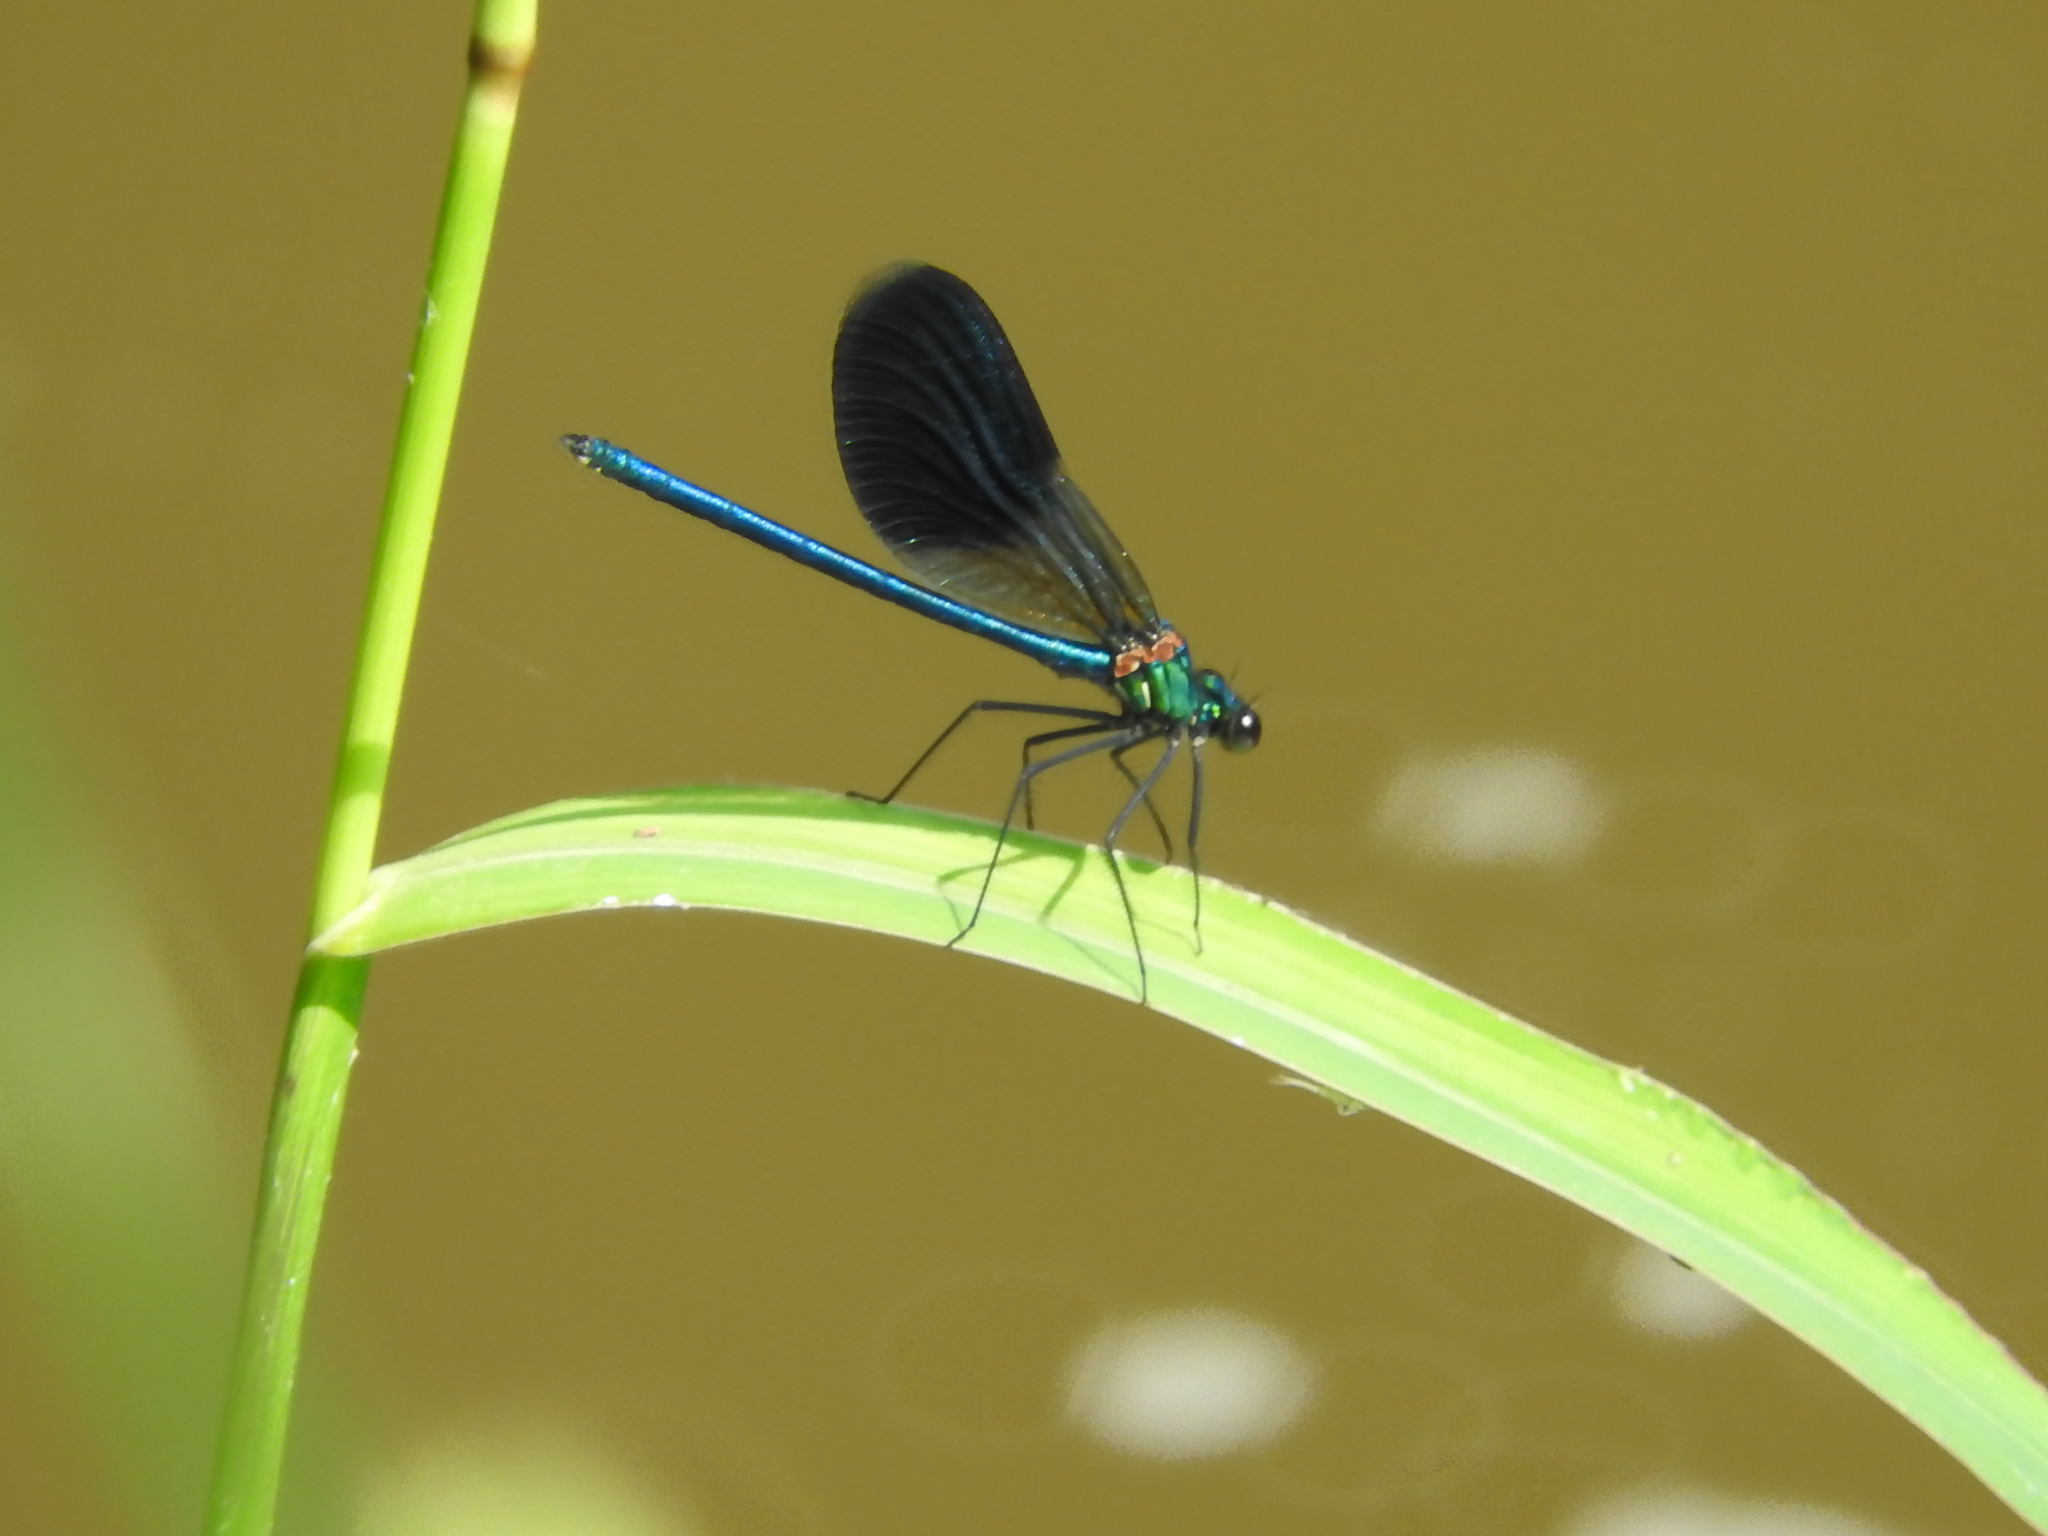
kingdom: Animalia
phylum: Arthropoda
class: Insecta
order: Odonata
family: Calopterygidae
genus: Calopteryx
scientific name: Calopteryx splendens
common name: Banded demoiselle
